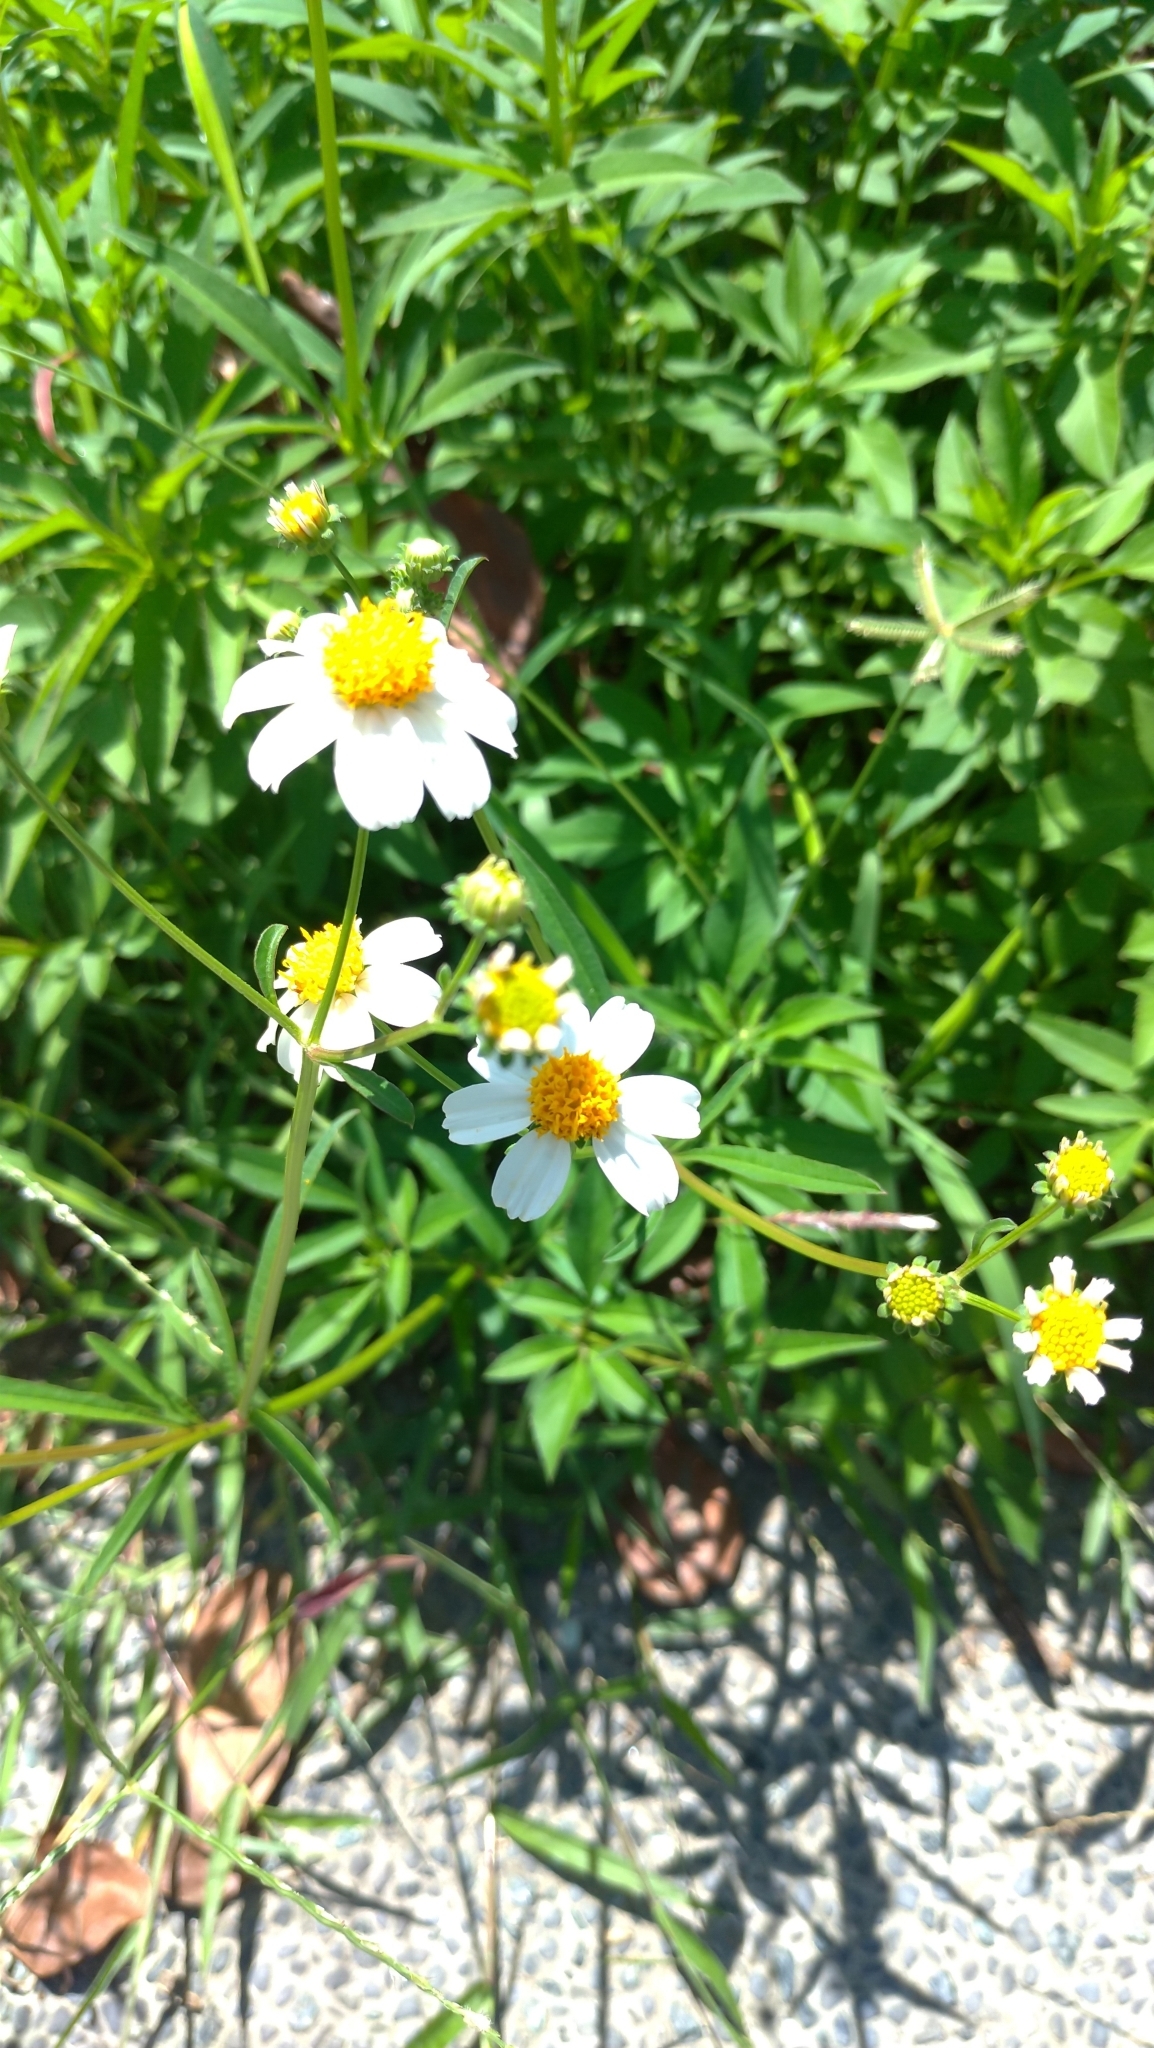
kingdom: Plantae
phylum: Tracheophyta
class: Magnoliopsida
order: Asterales
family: Asteraceae
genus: Bidens
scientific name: Bidens alba
